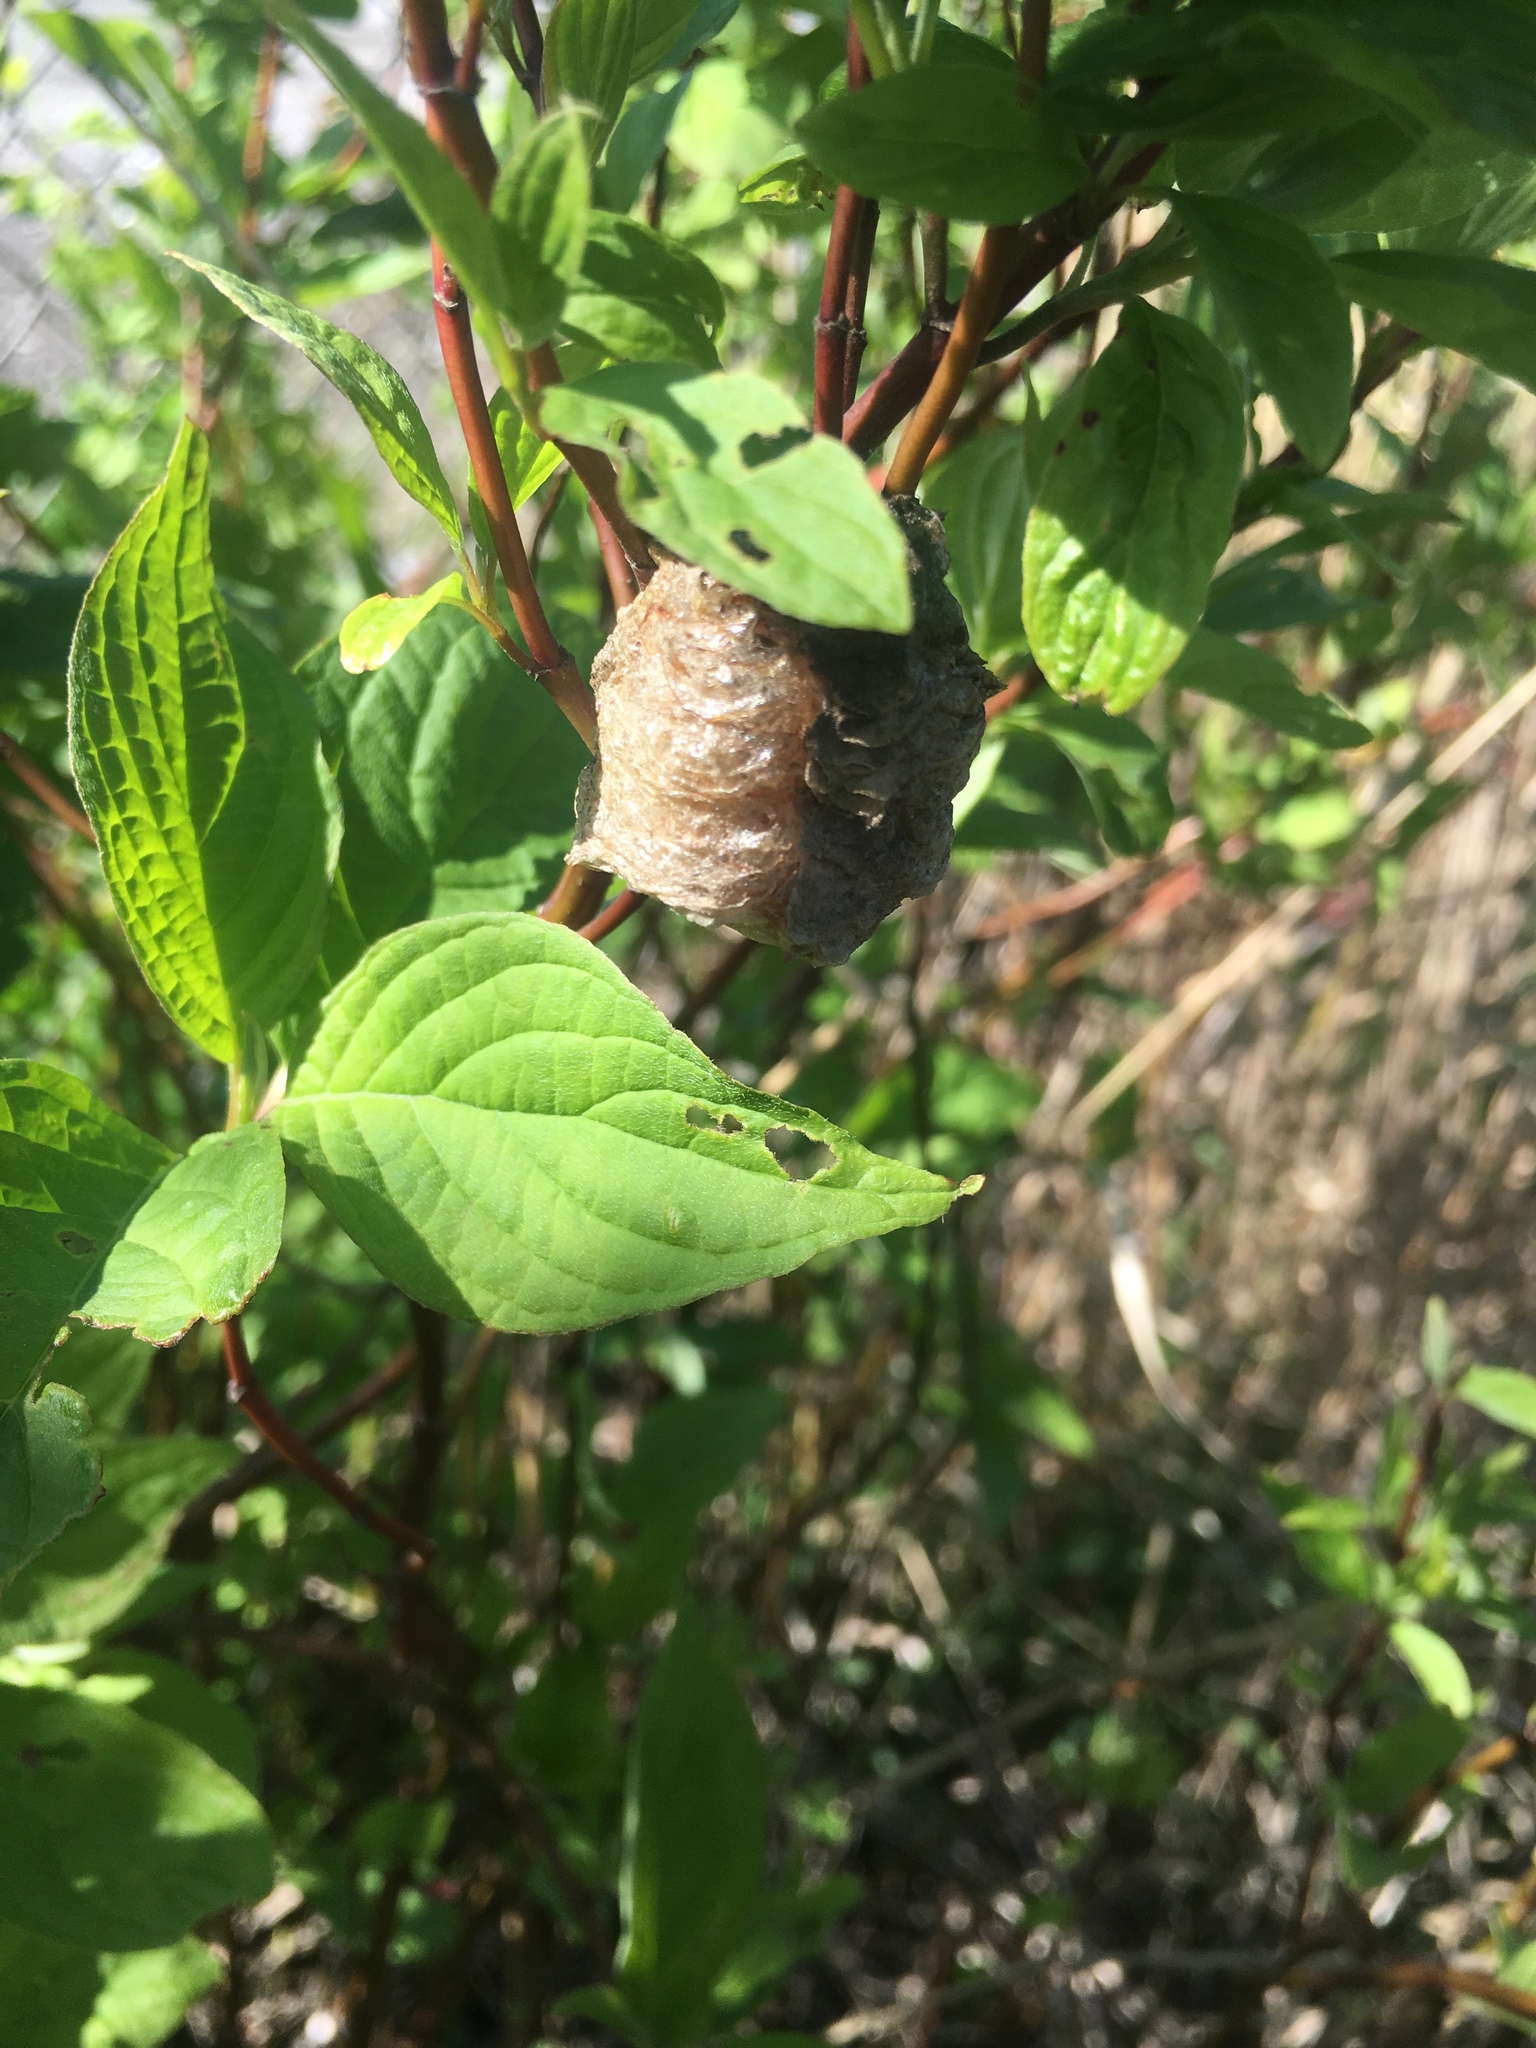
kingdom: Animalia
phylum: Arthropoda
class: Insecta
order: Mantodea
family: Mantidae
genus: Tenodera
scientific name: Tenodera sinensis
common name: Chinese mantis
